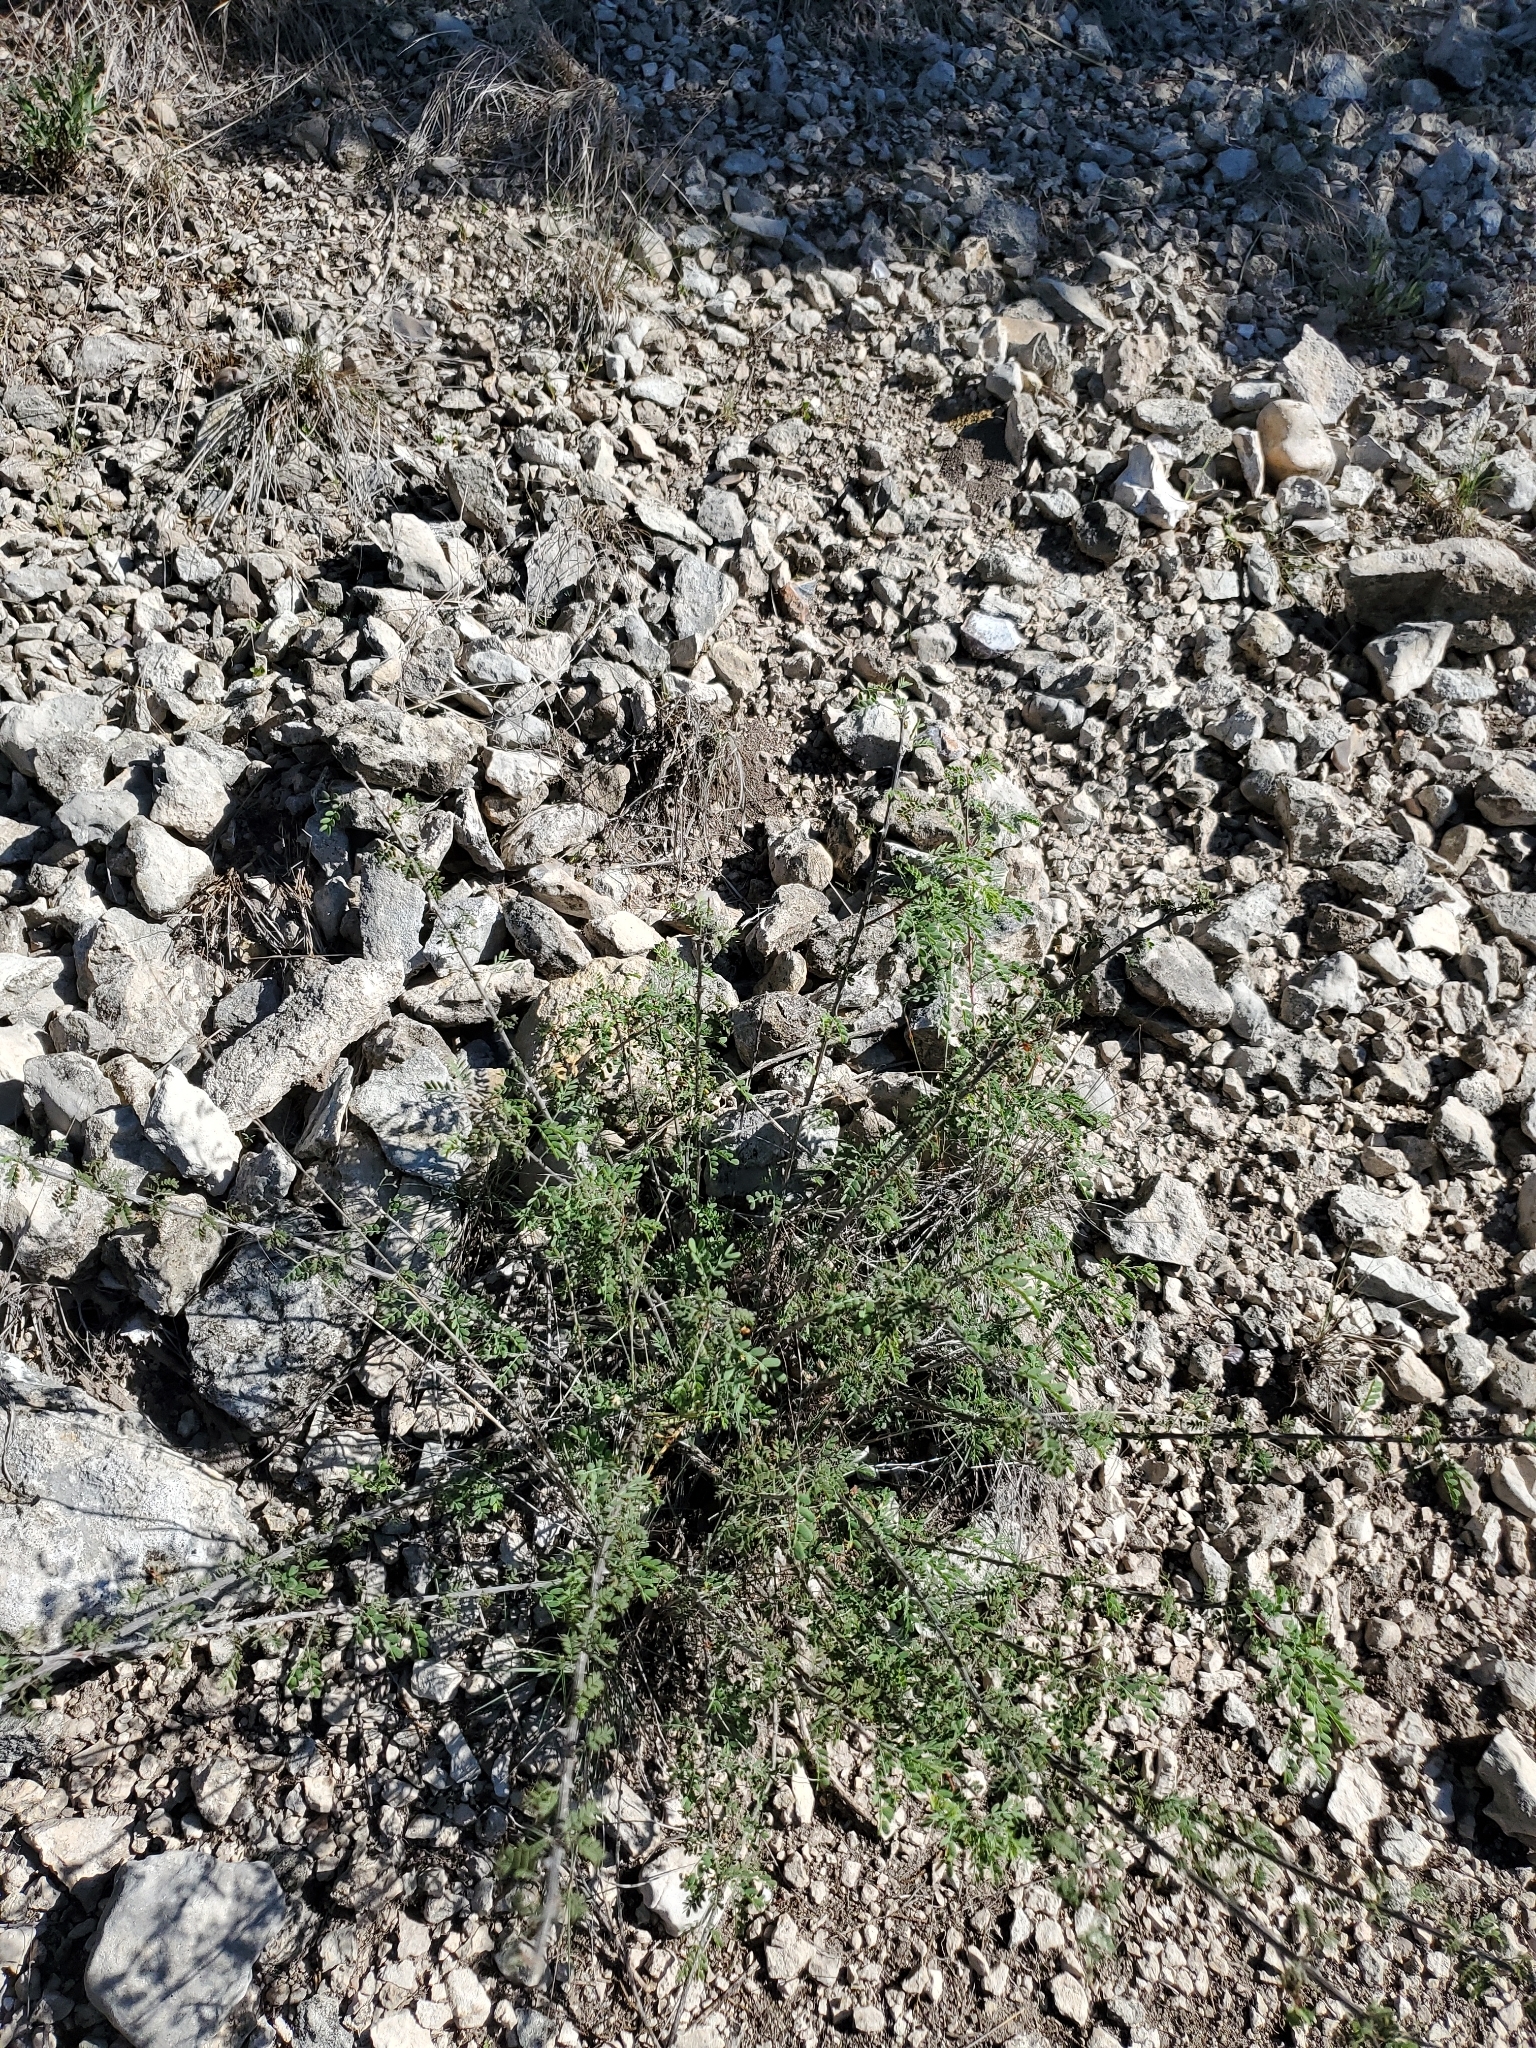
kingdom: Plantae
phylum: Tracheophyta
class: Magnoliopsida
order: Fabales
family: Fabaceae
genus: Mimosa
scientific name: Mimosa borealis
